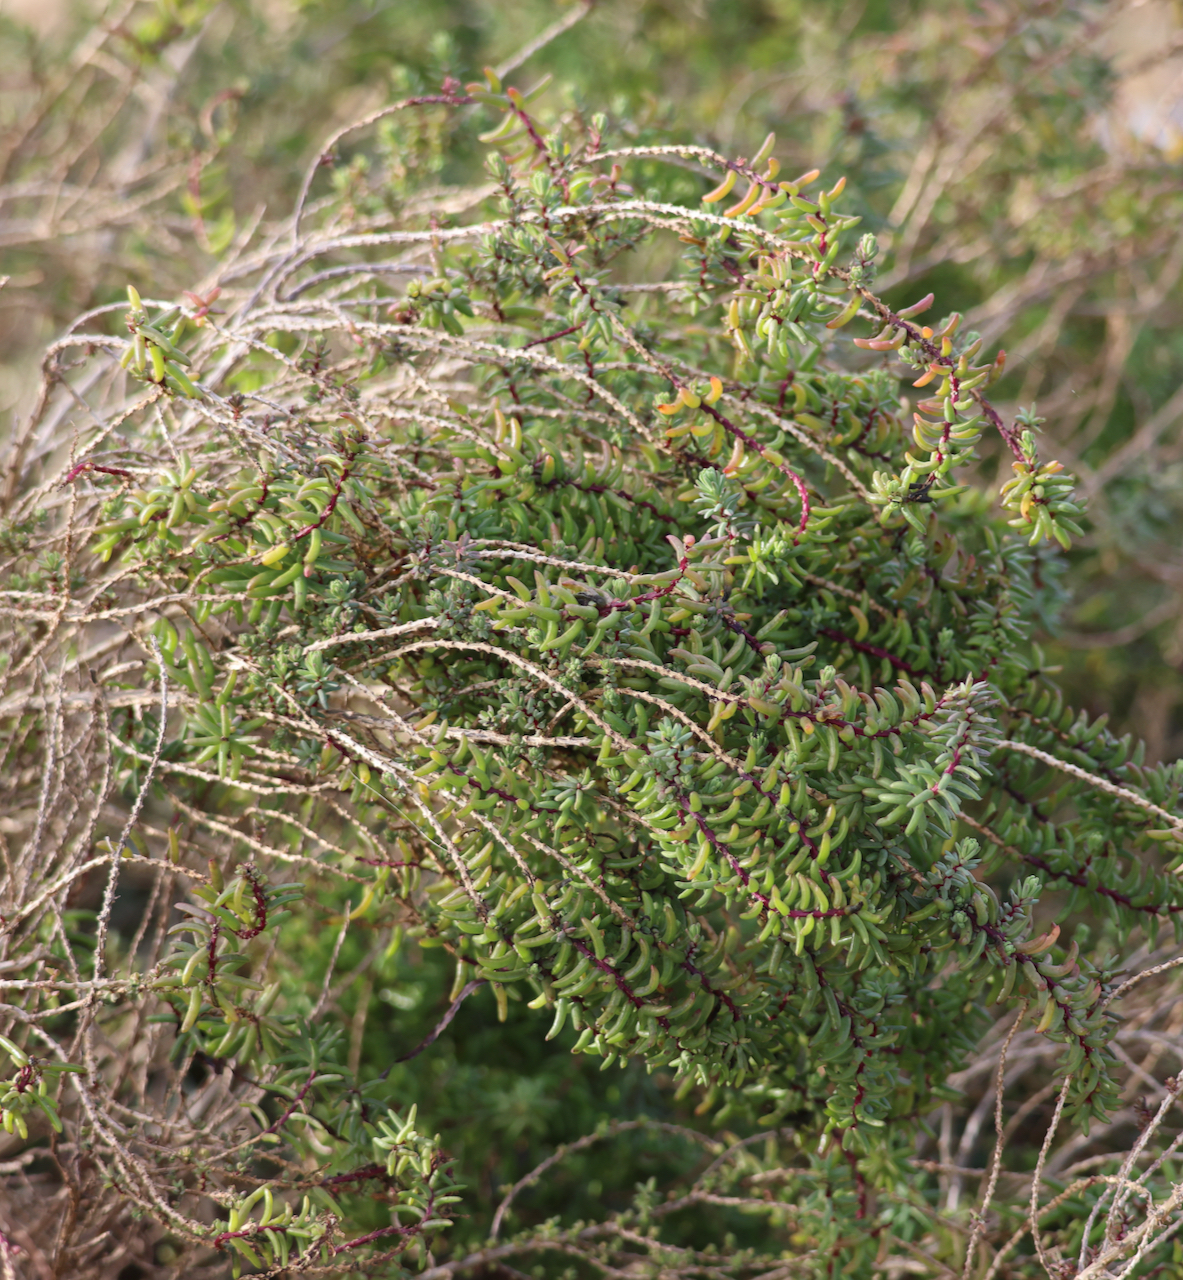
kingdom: Plantae
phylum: Tracheophyta
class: Magnoliopsida
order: Caryophyllales
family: Amaranthaceae
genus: Suaeda
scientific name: Suaeda vera
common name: Shrubby sea-blite
